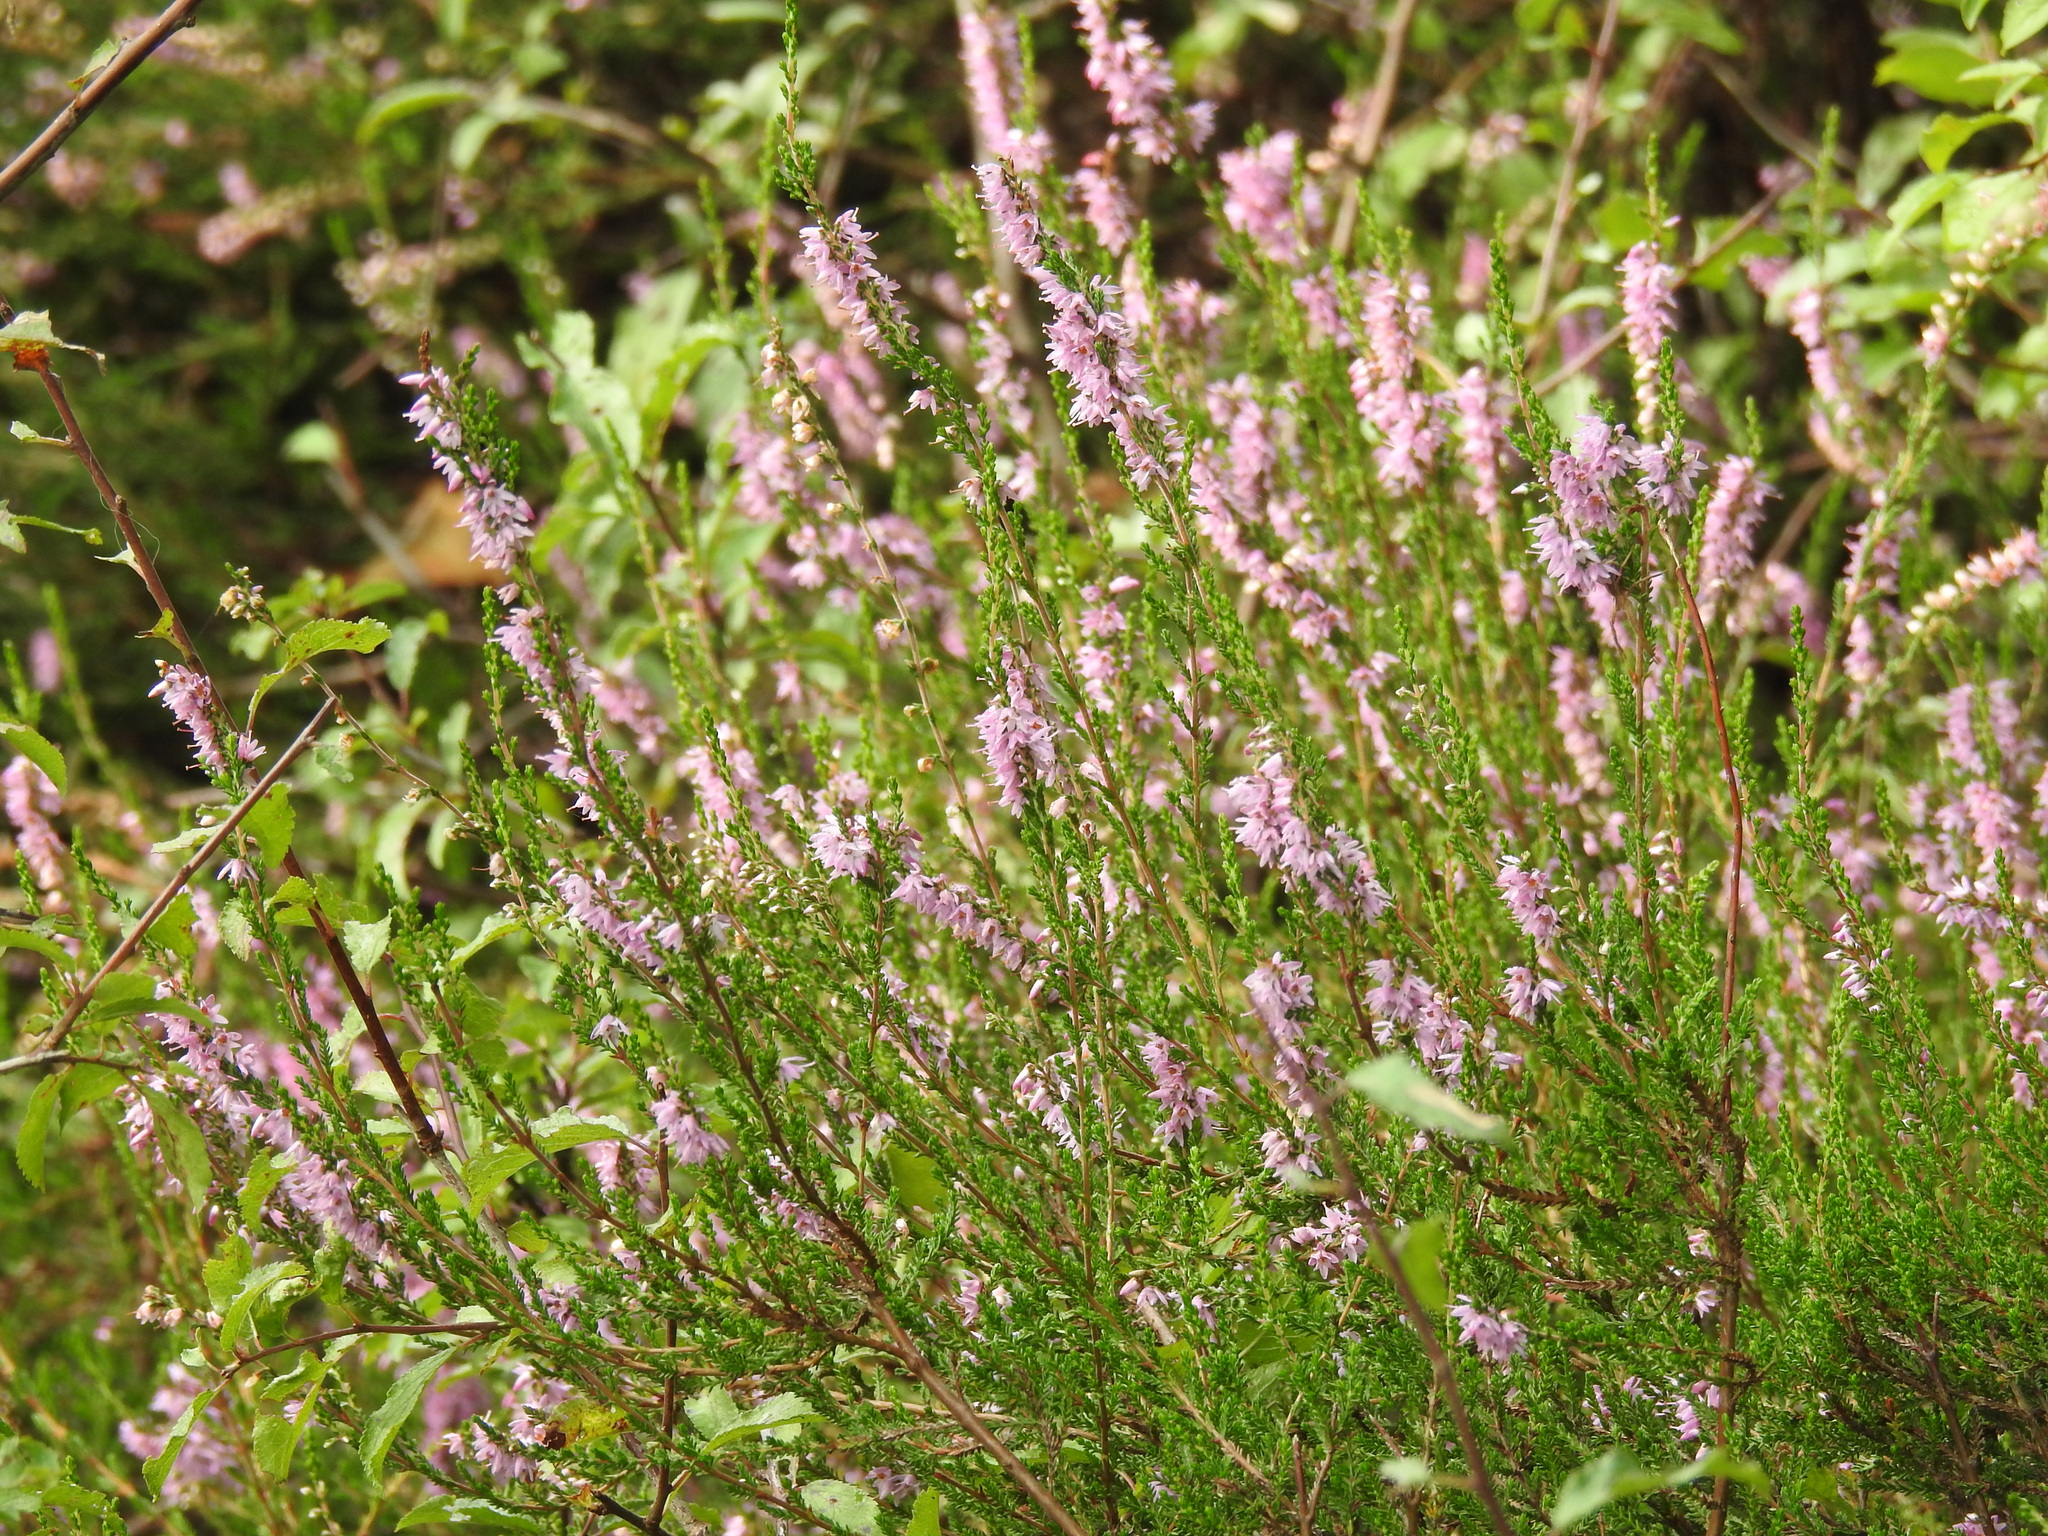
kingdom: Plantae
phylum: Tracheophyta
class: Magnoliopsida
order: Ericales
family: Ericaceae
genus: Calluna
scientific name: Calluna vulgaris
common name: Heather
